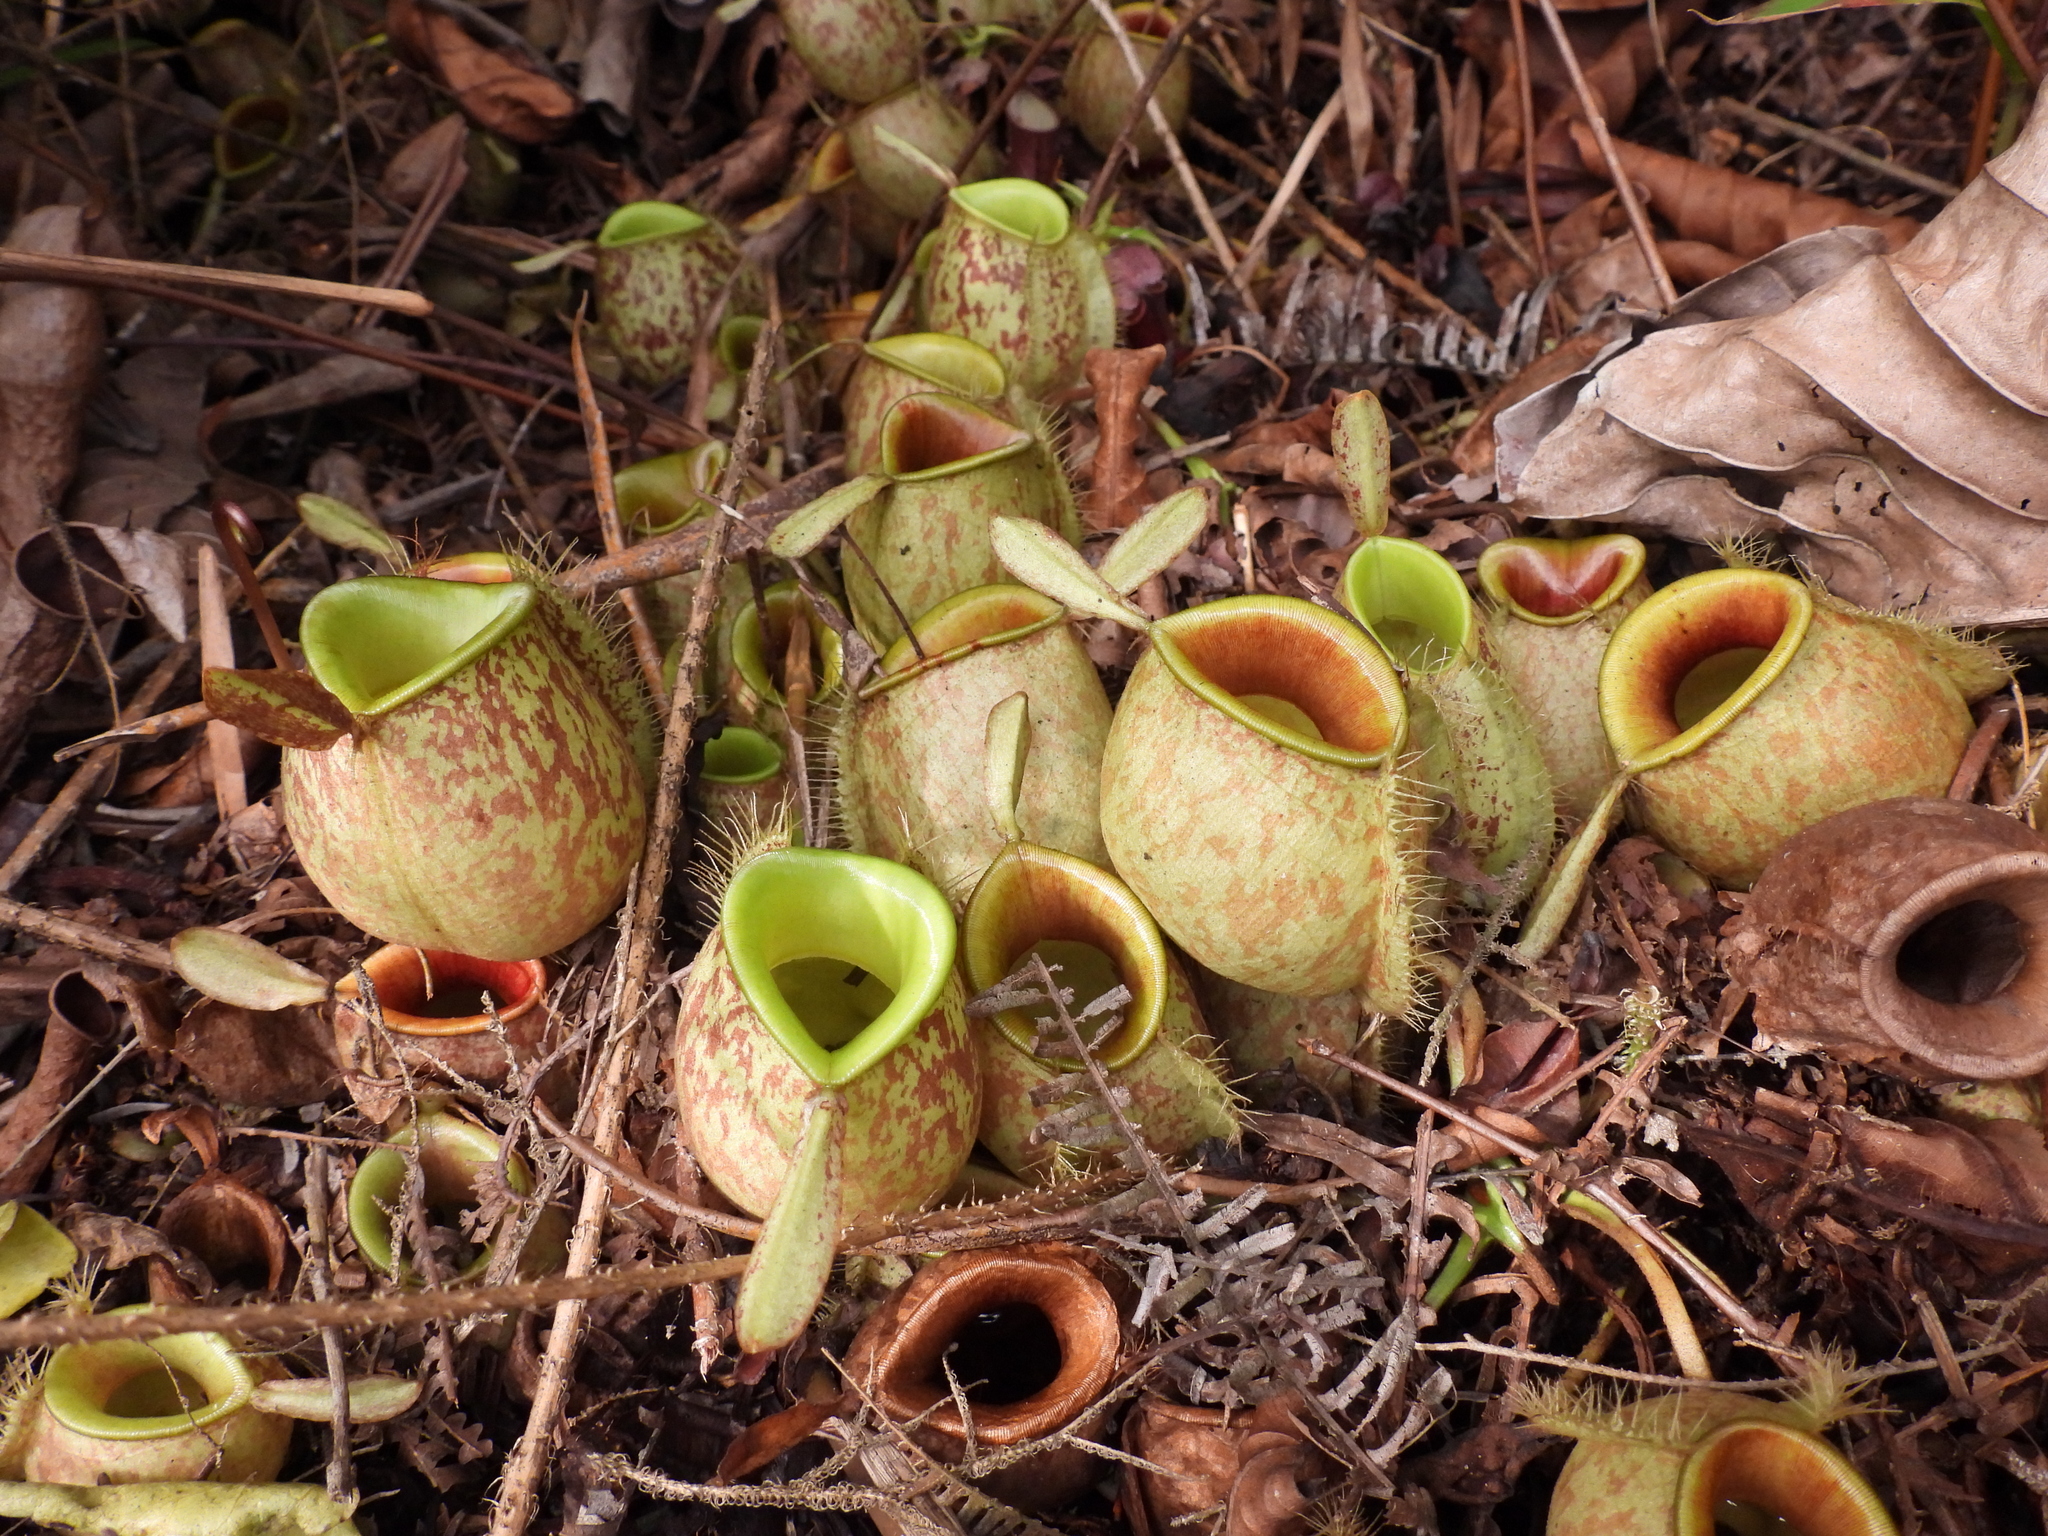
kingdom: Plantae
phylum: Tracheophyta
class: Magnoliopsida
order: Caryophyllales
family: Nepenthaceae
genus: Nepenthes
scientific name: Nepenthes ampullaria
